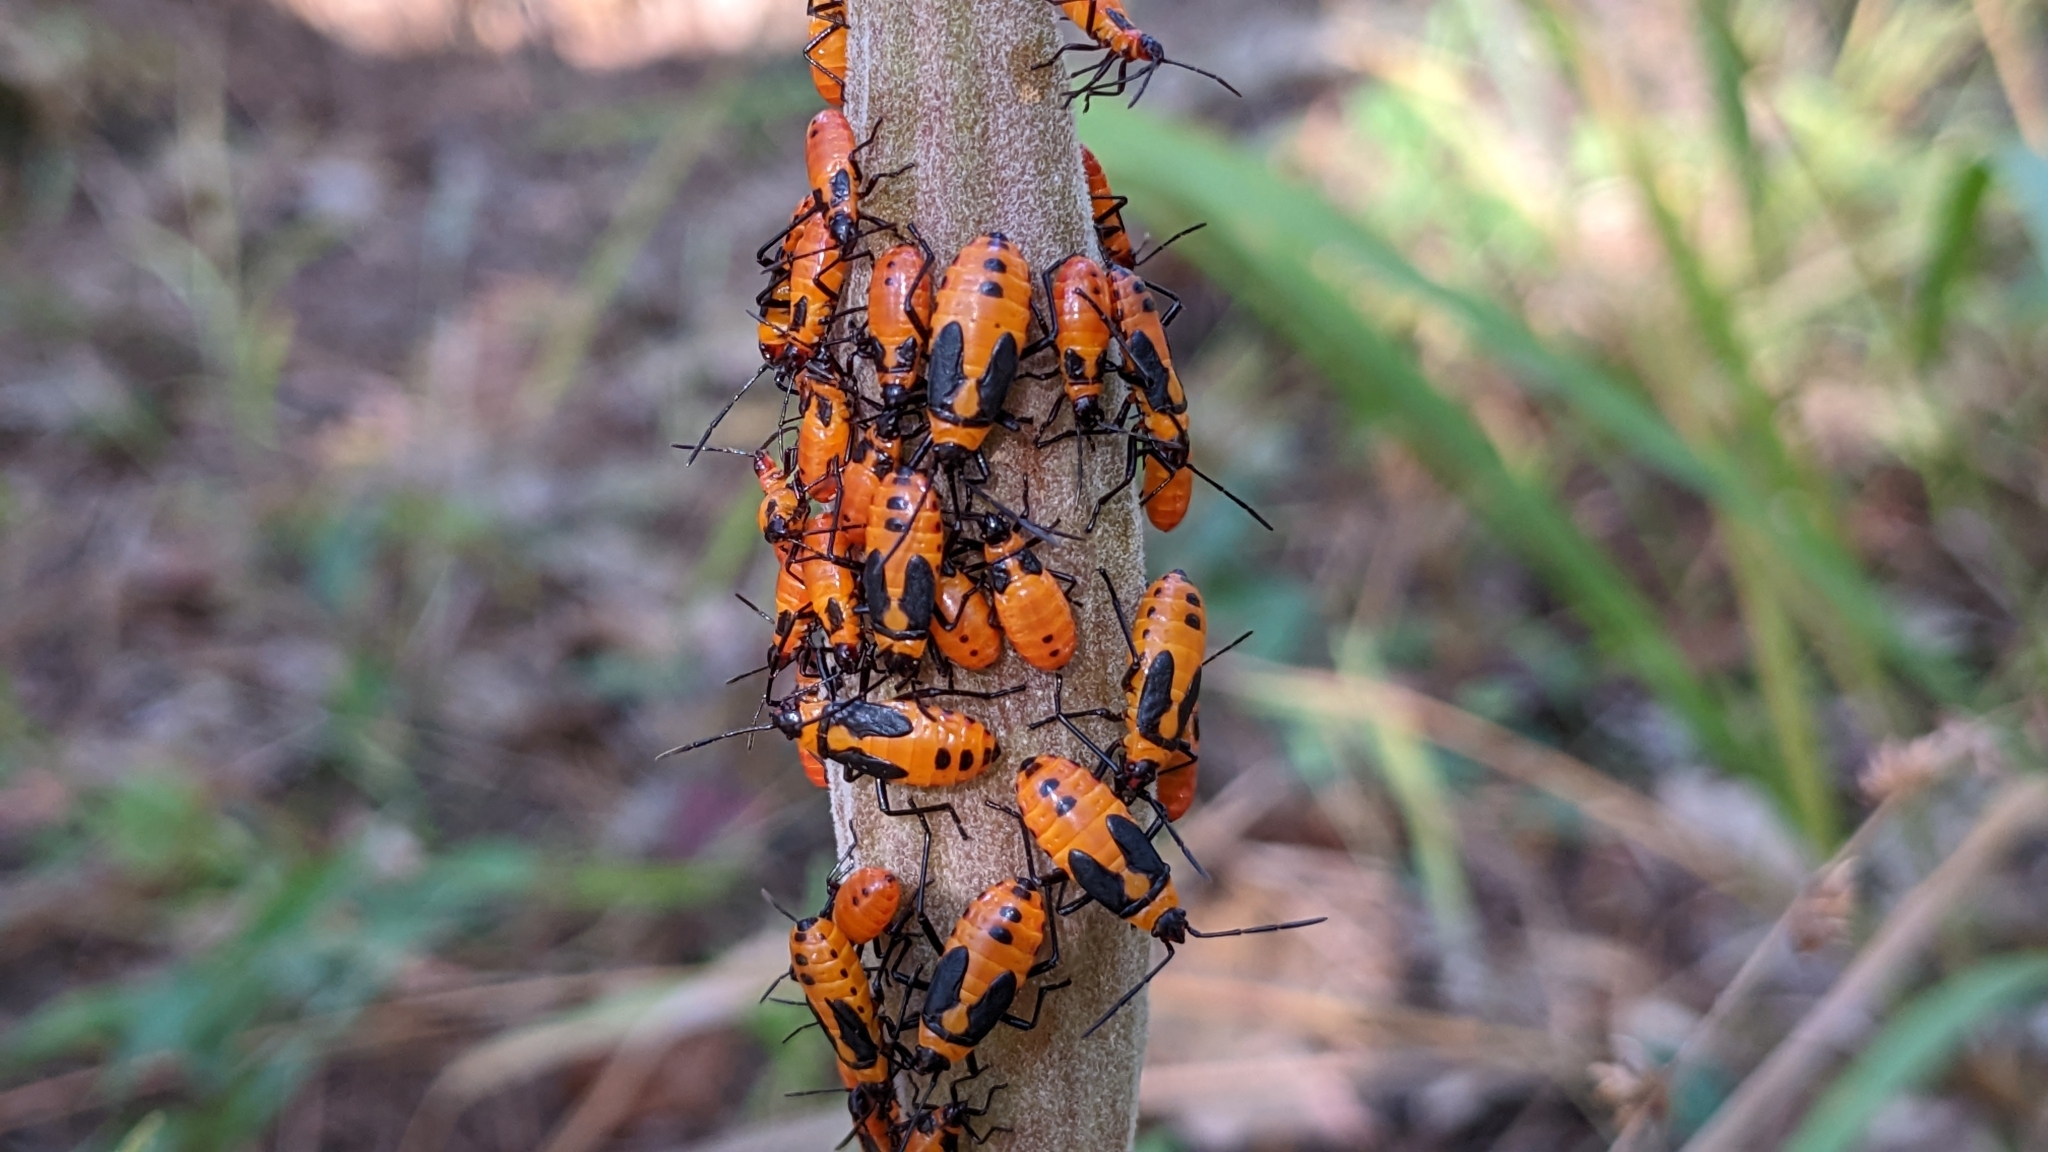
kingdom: Animalia
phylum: Arthropoda
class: Insecta
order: Hemiptera
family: Lygaeidae
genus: Oncopeltus
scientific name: Oncopeltus fasciatus
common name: Large milkweed bug
